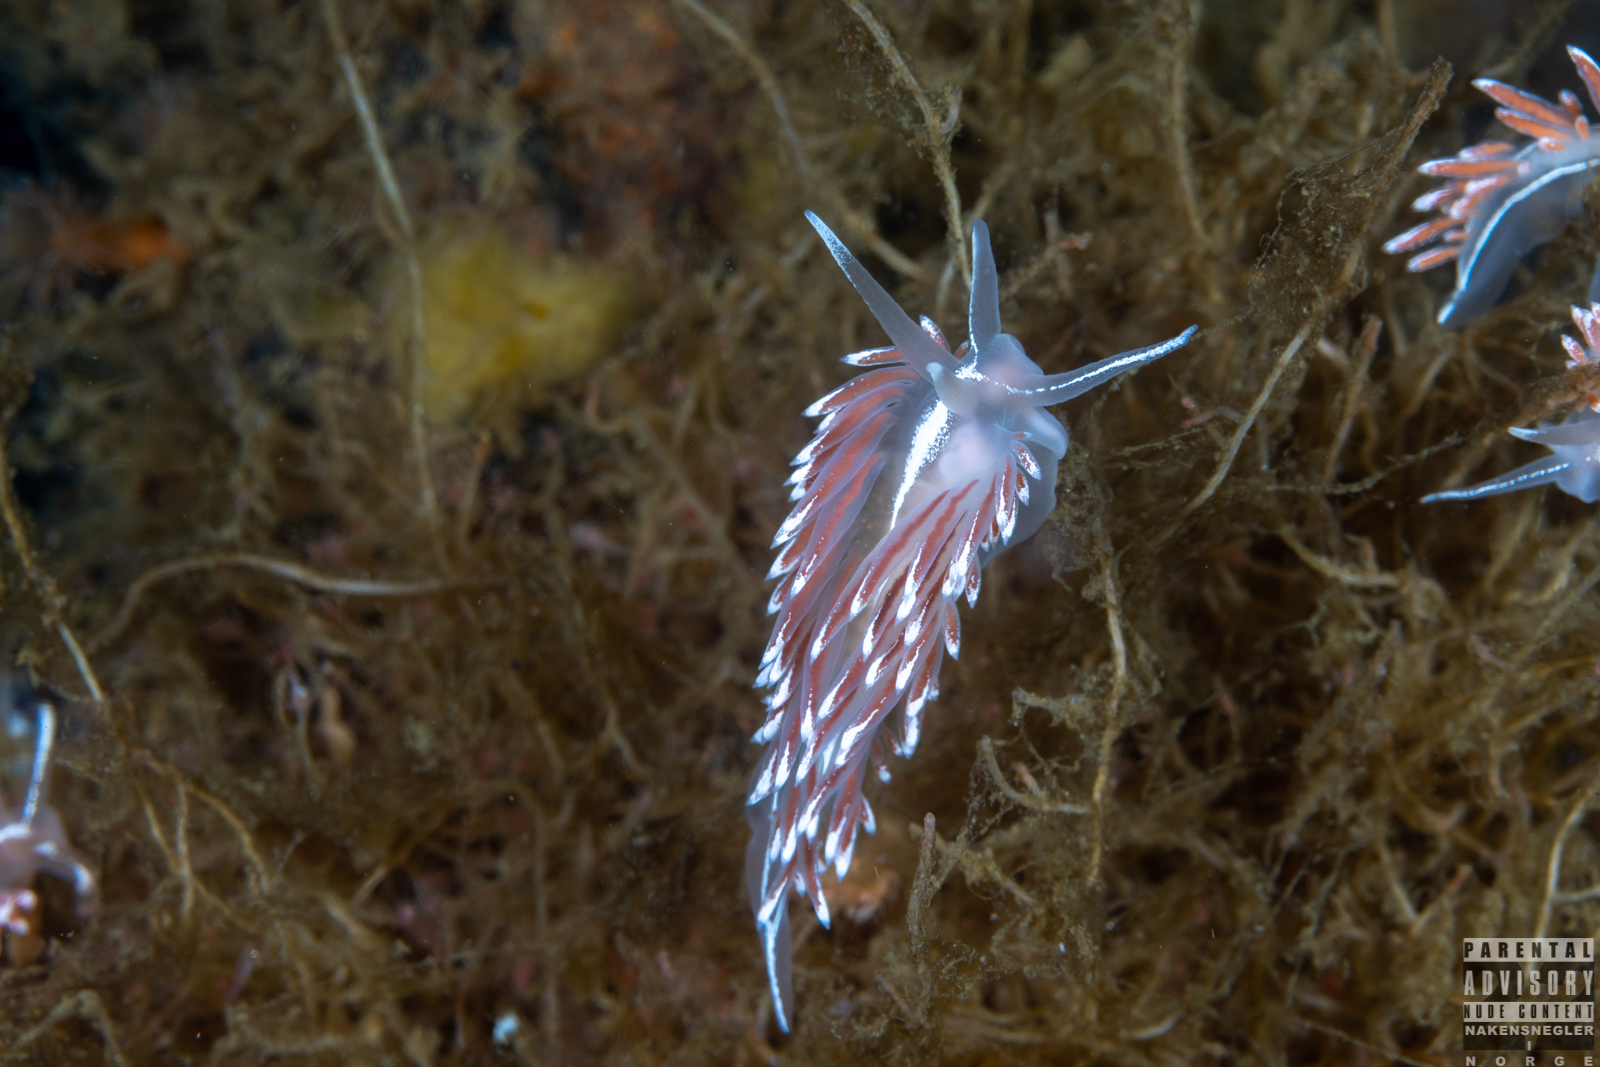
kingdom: Animalia
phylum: Mollusca
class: Gastropoda
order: Nudibranchia
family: Coryphellidae
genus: Coryphella
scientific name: Coryphella lineata
